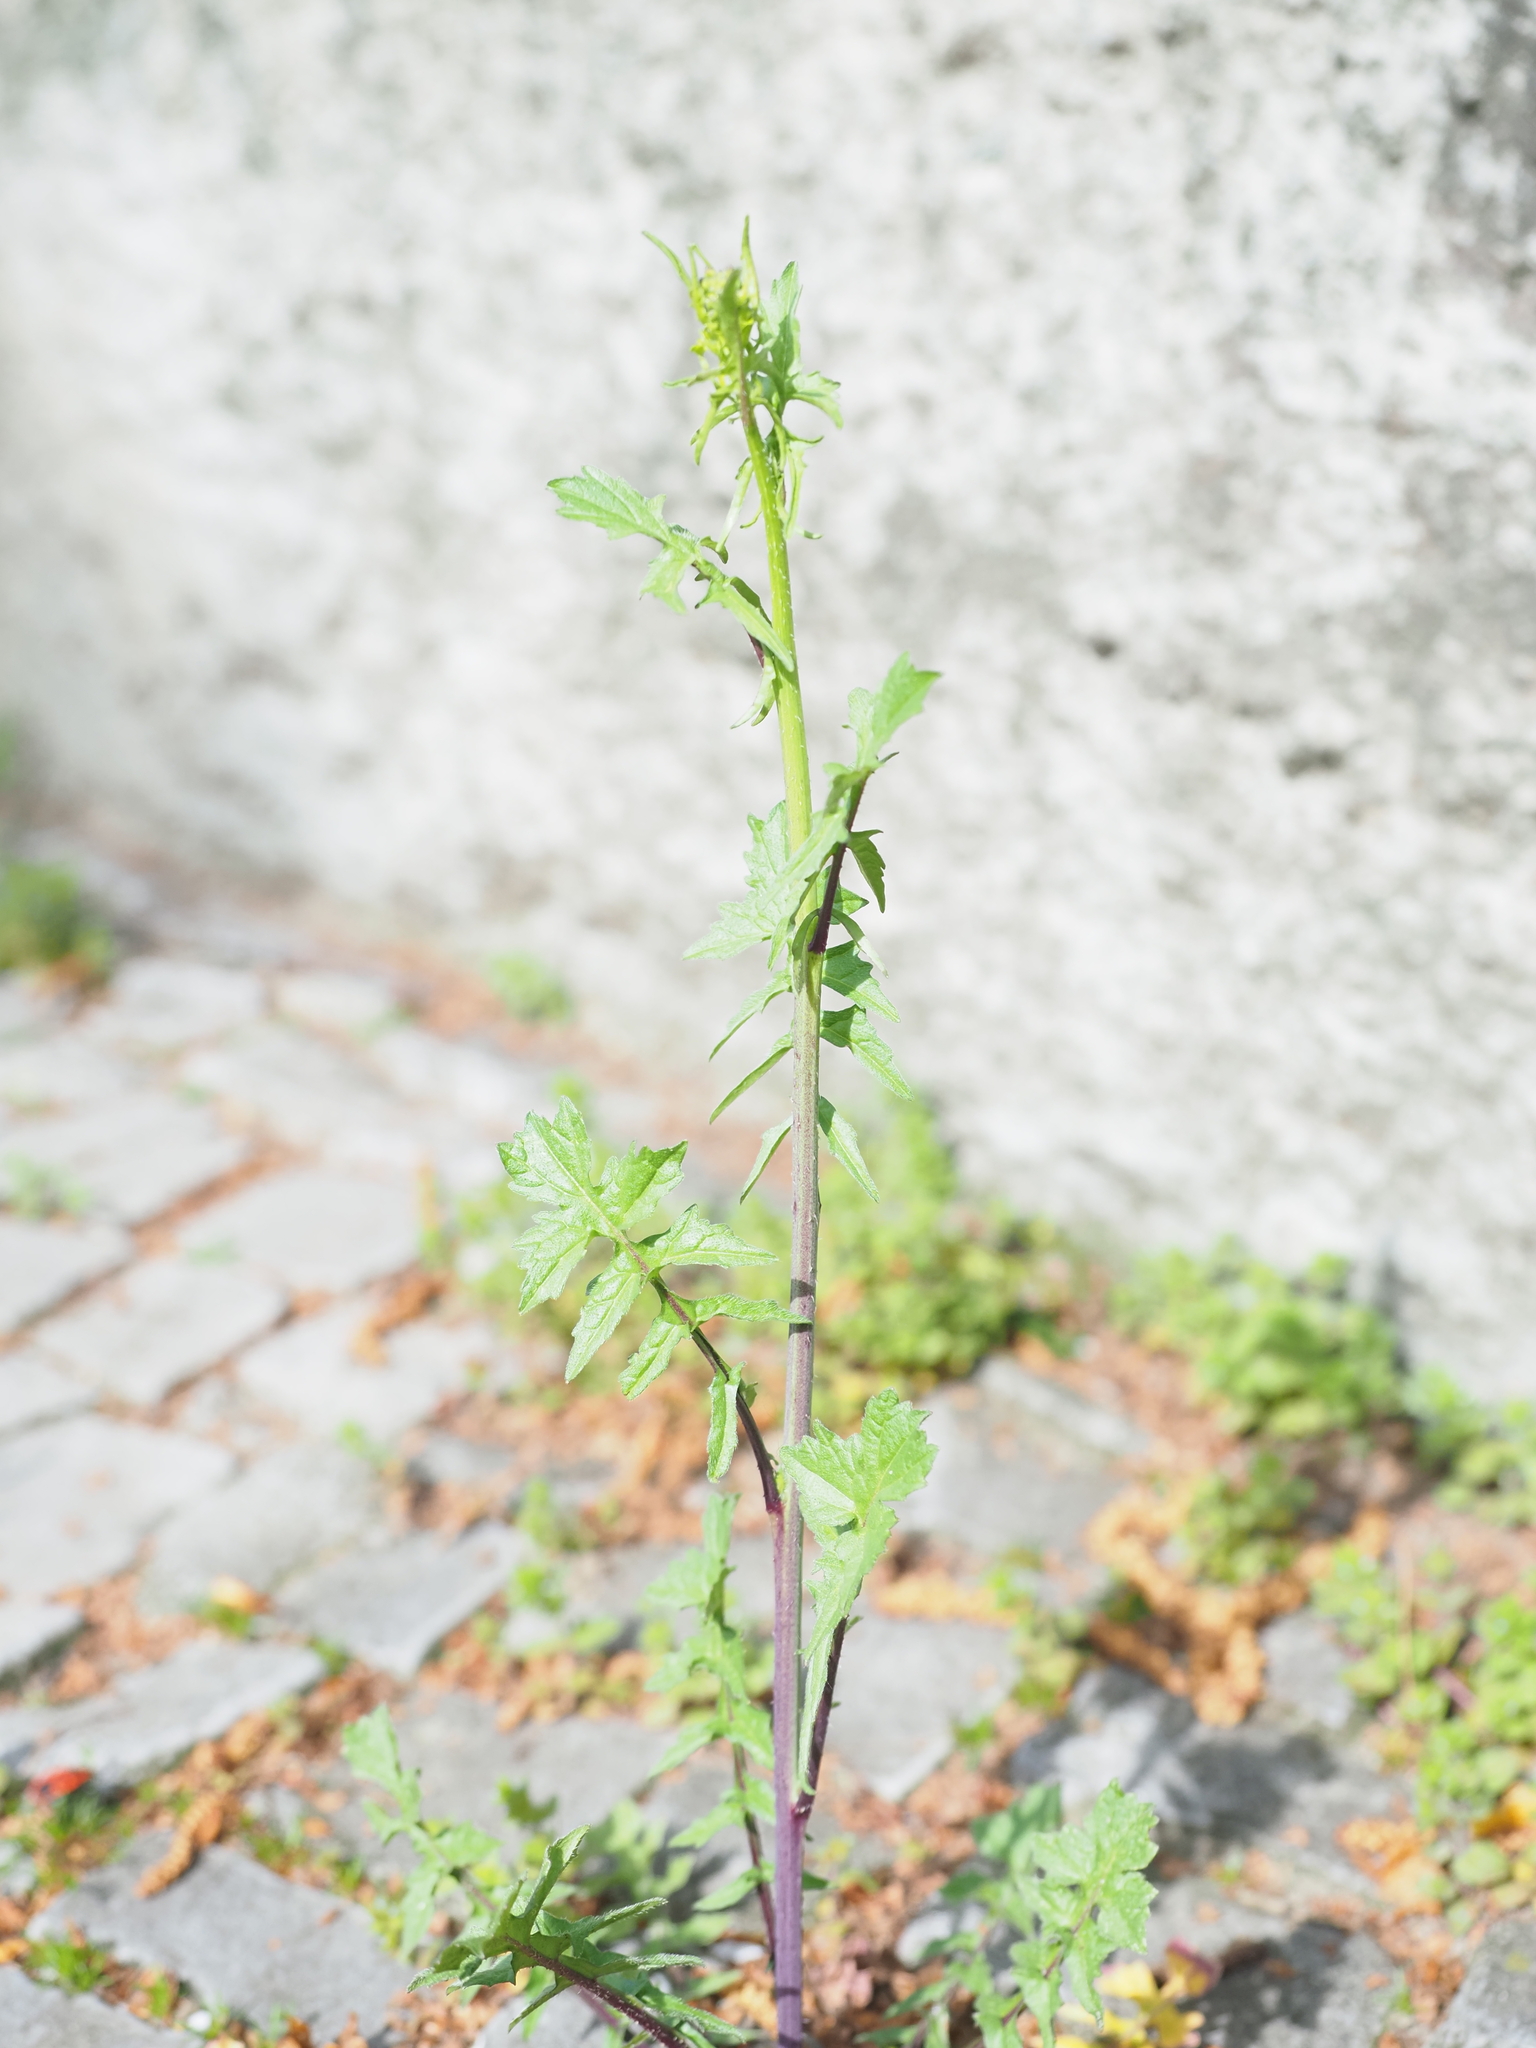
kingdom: Plantae
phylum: Tracheophyta
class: Magnoliopsida
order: Brassicales
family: Brassicaceae
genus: Sisymbrium
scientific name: Sisymbrium officinale
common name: Hedge mustard
